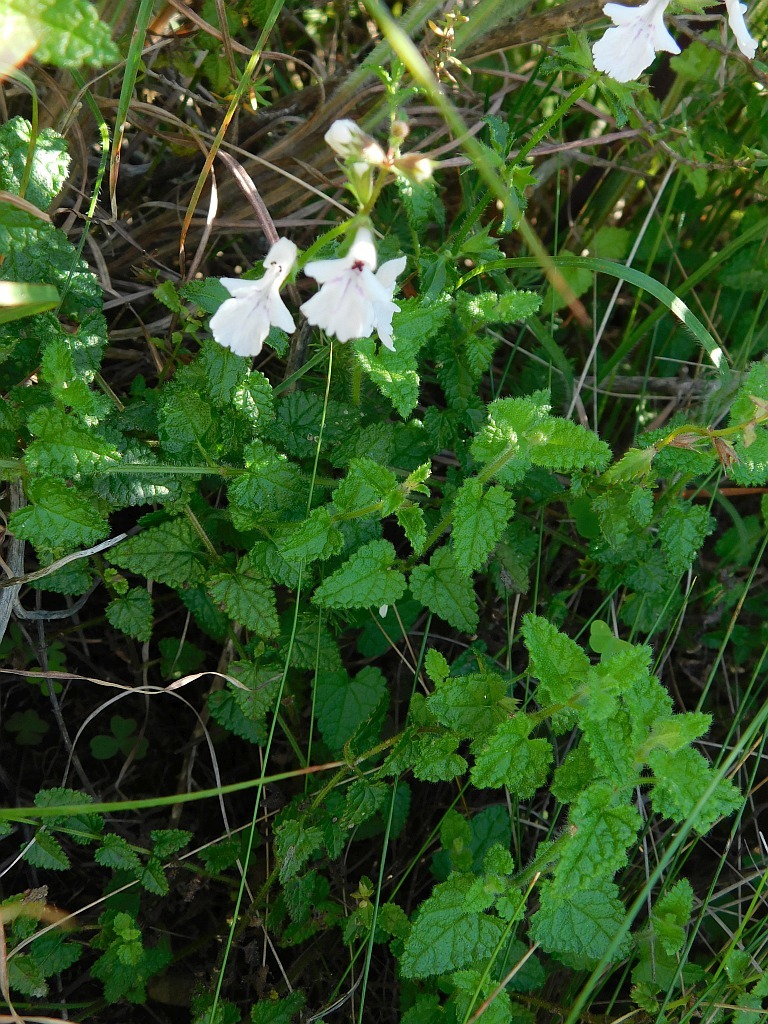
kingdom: Plantae
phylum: Tracheophyta
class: Magnoliopsida
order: Lamiales
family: Lamiaceae
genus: Stachys
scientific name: Stachys aethiopica
